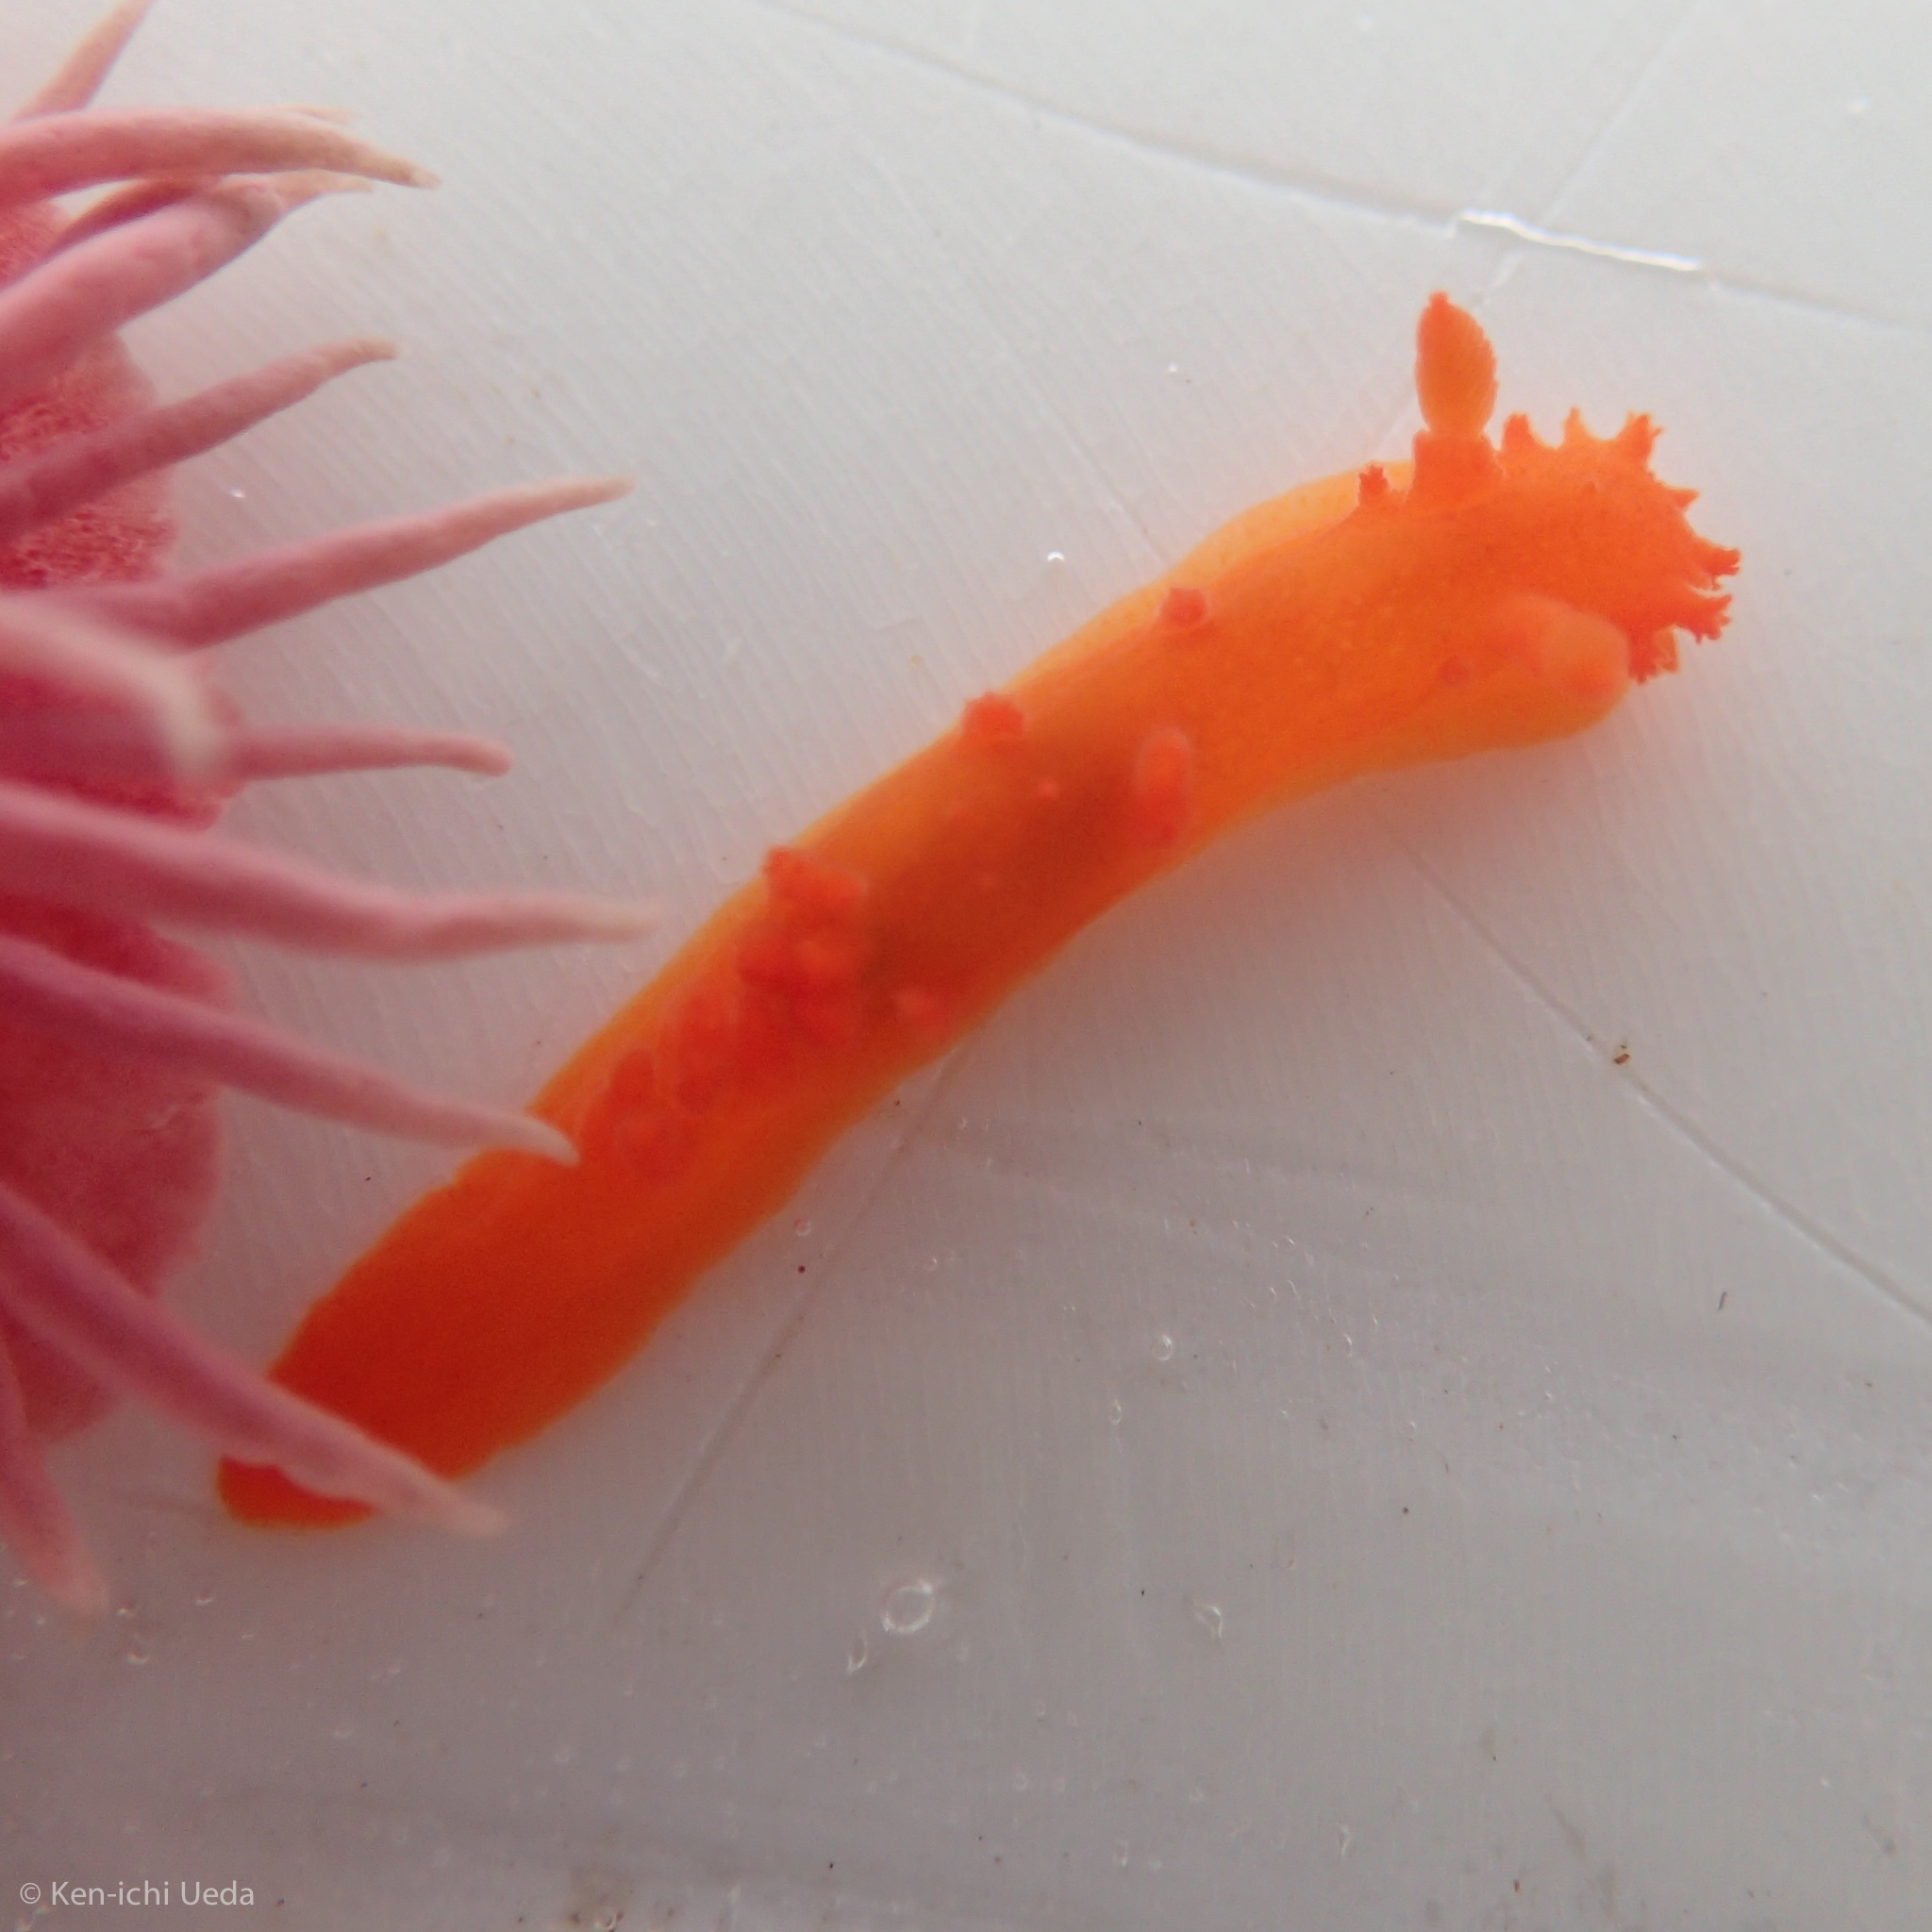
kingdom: Animalia
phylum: Mollusca
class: Gastropoda
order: Nudibranchia
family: Polyceridae
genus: Triopha
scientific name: Triopha maculata
